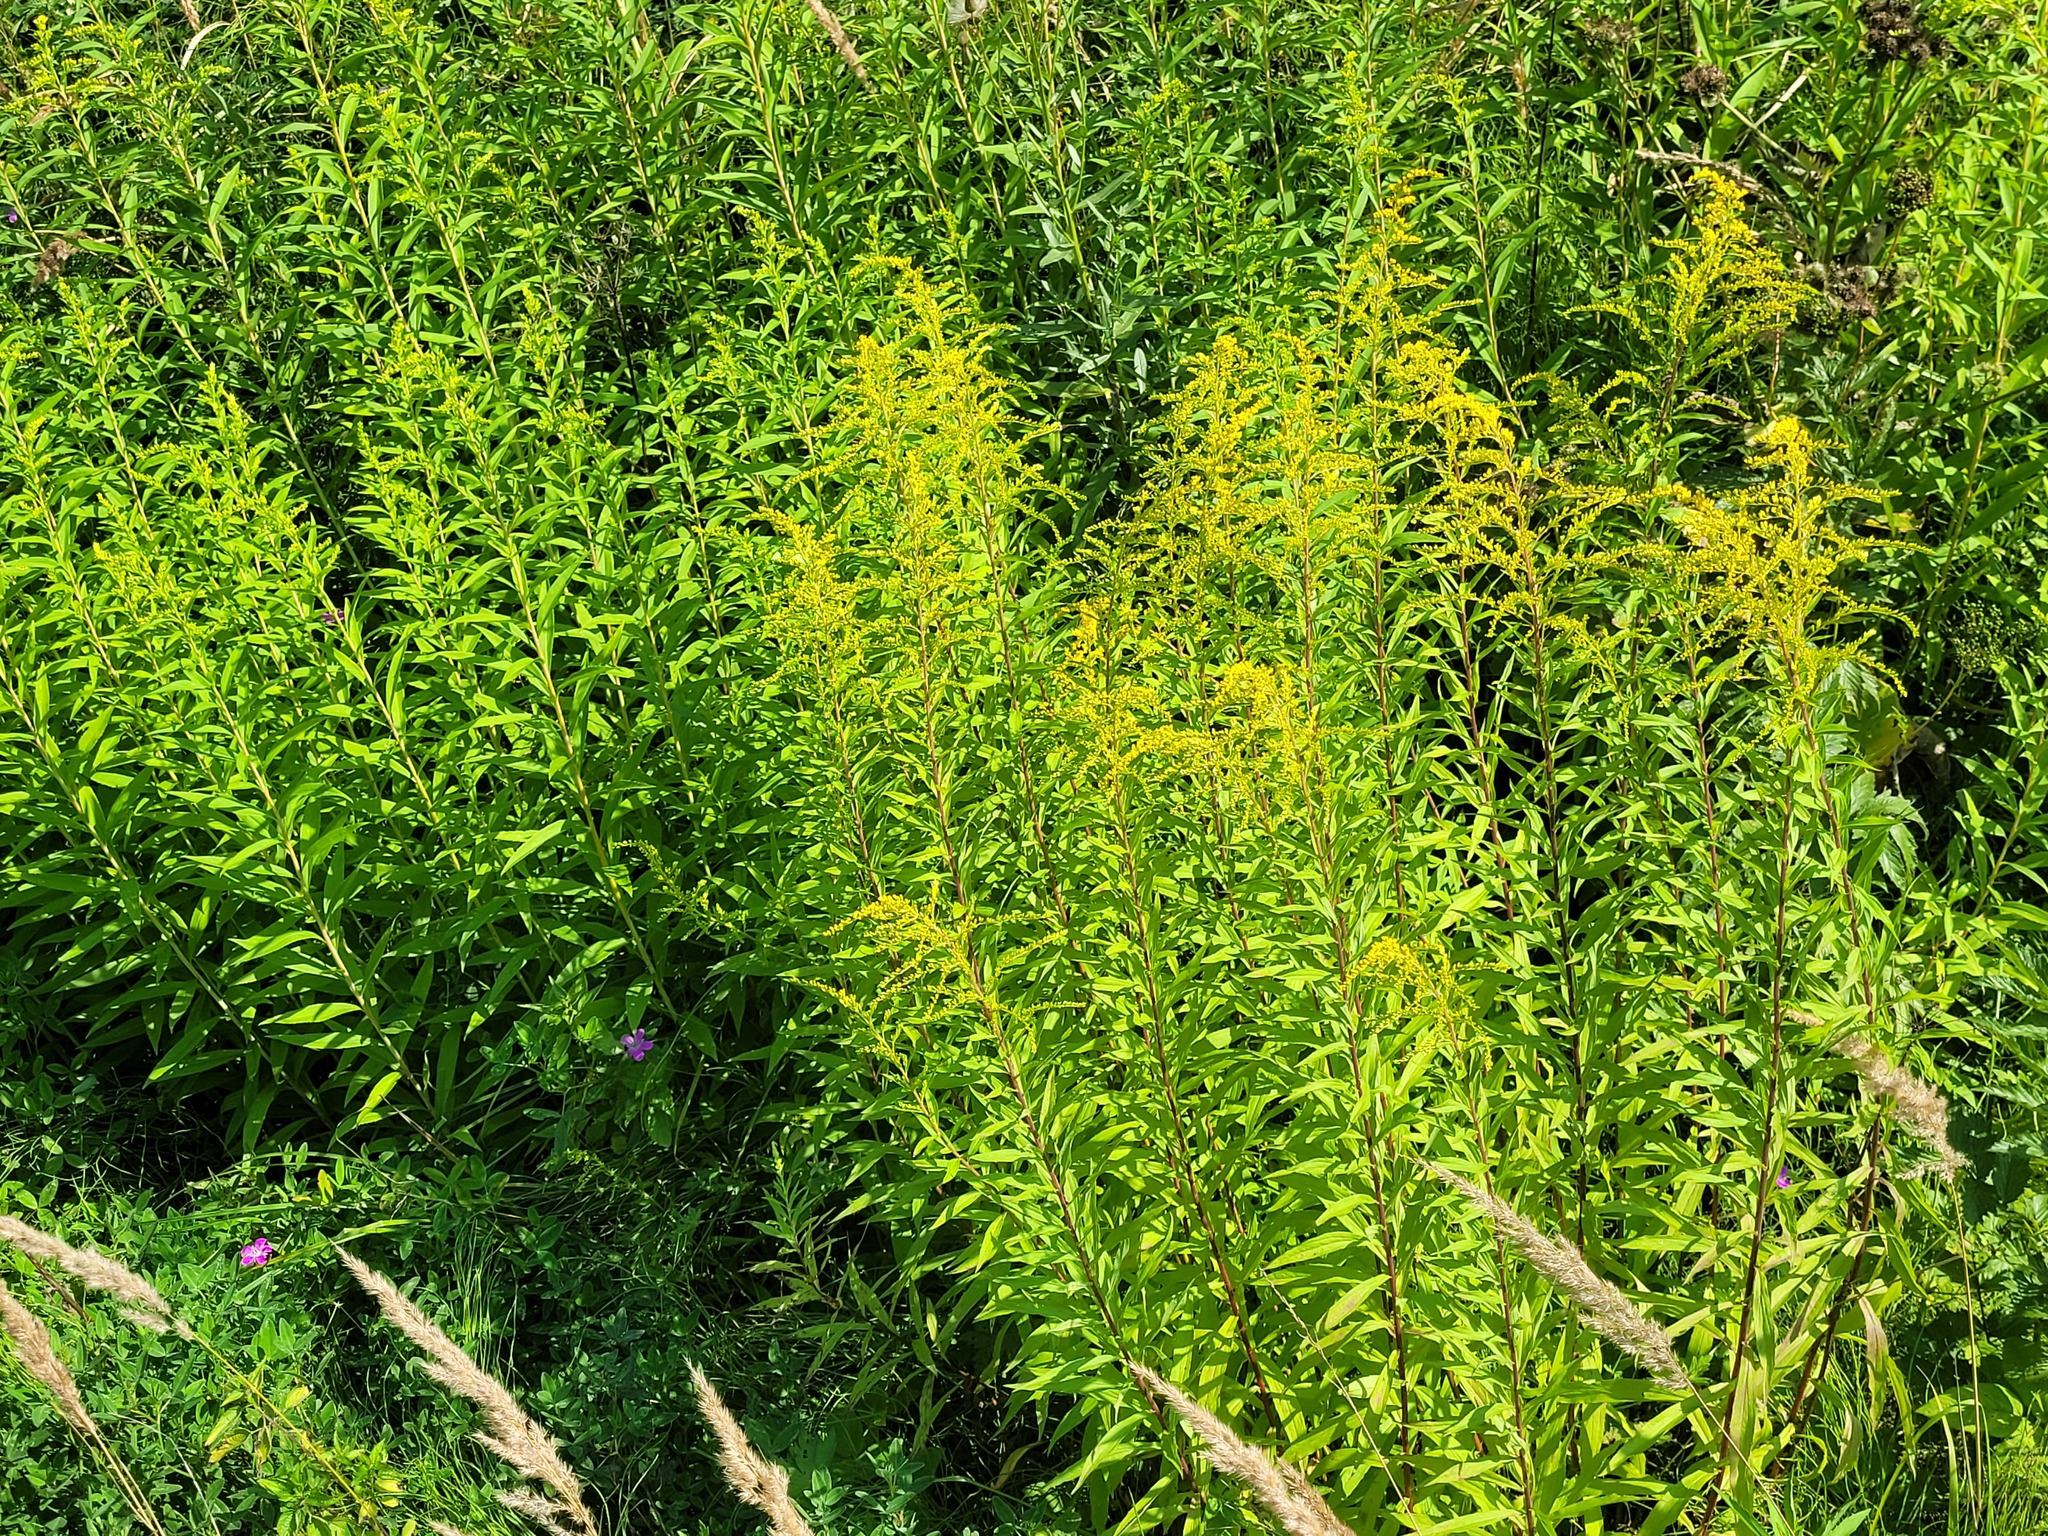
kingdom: Plantae
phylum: Tracheophyta
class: Magnoliopsida
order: Asterales
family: Asteraceae
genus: Solidago
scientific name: Solidago canadensis
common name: Canada goldenrod
